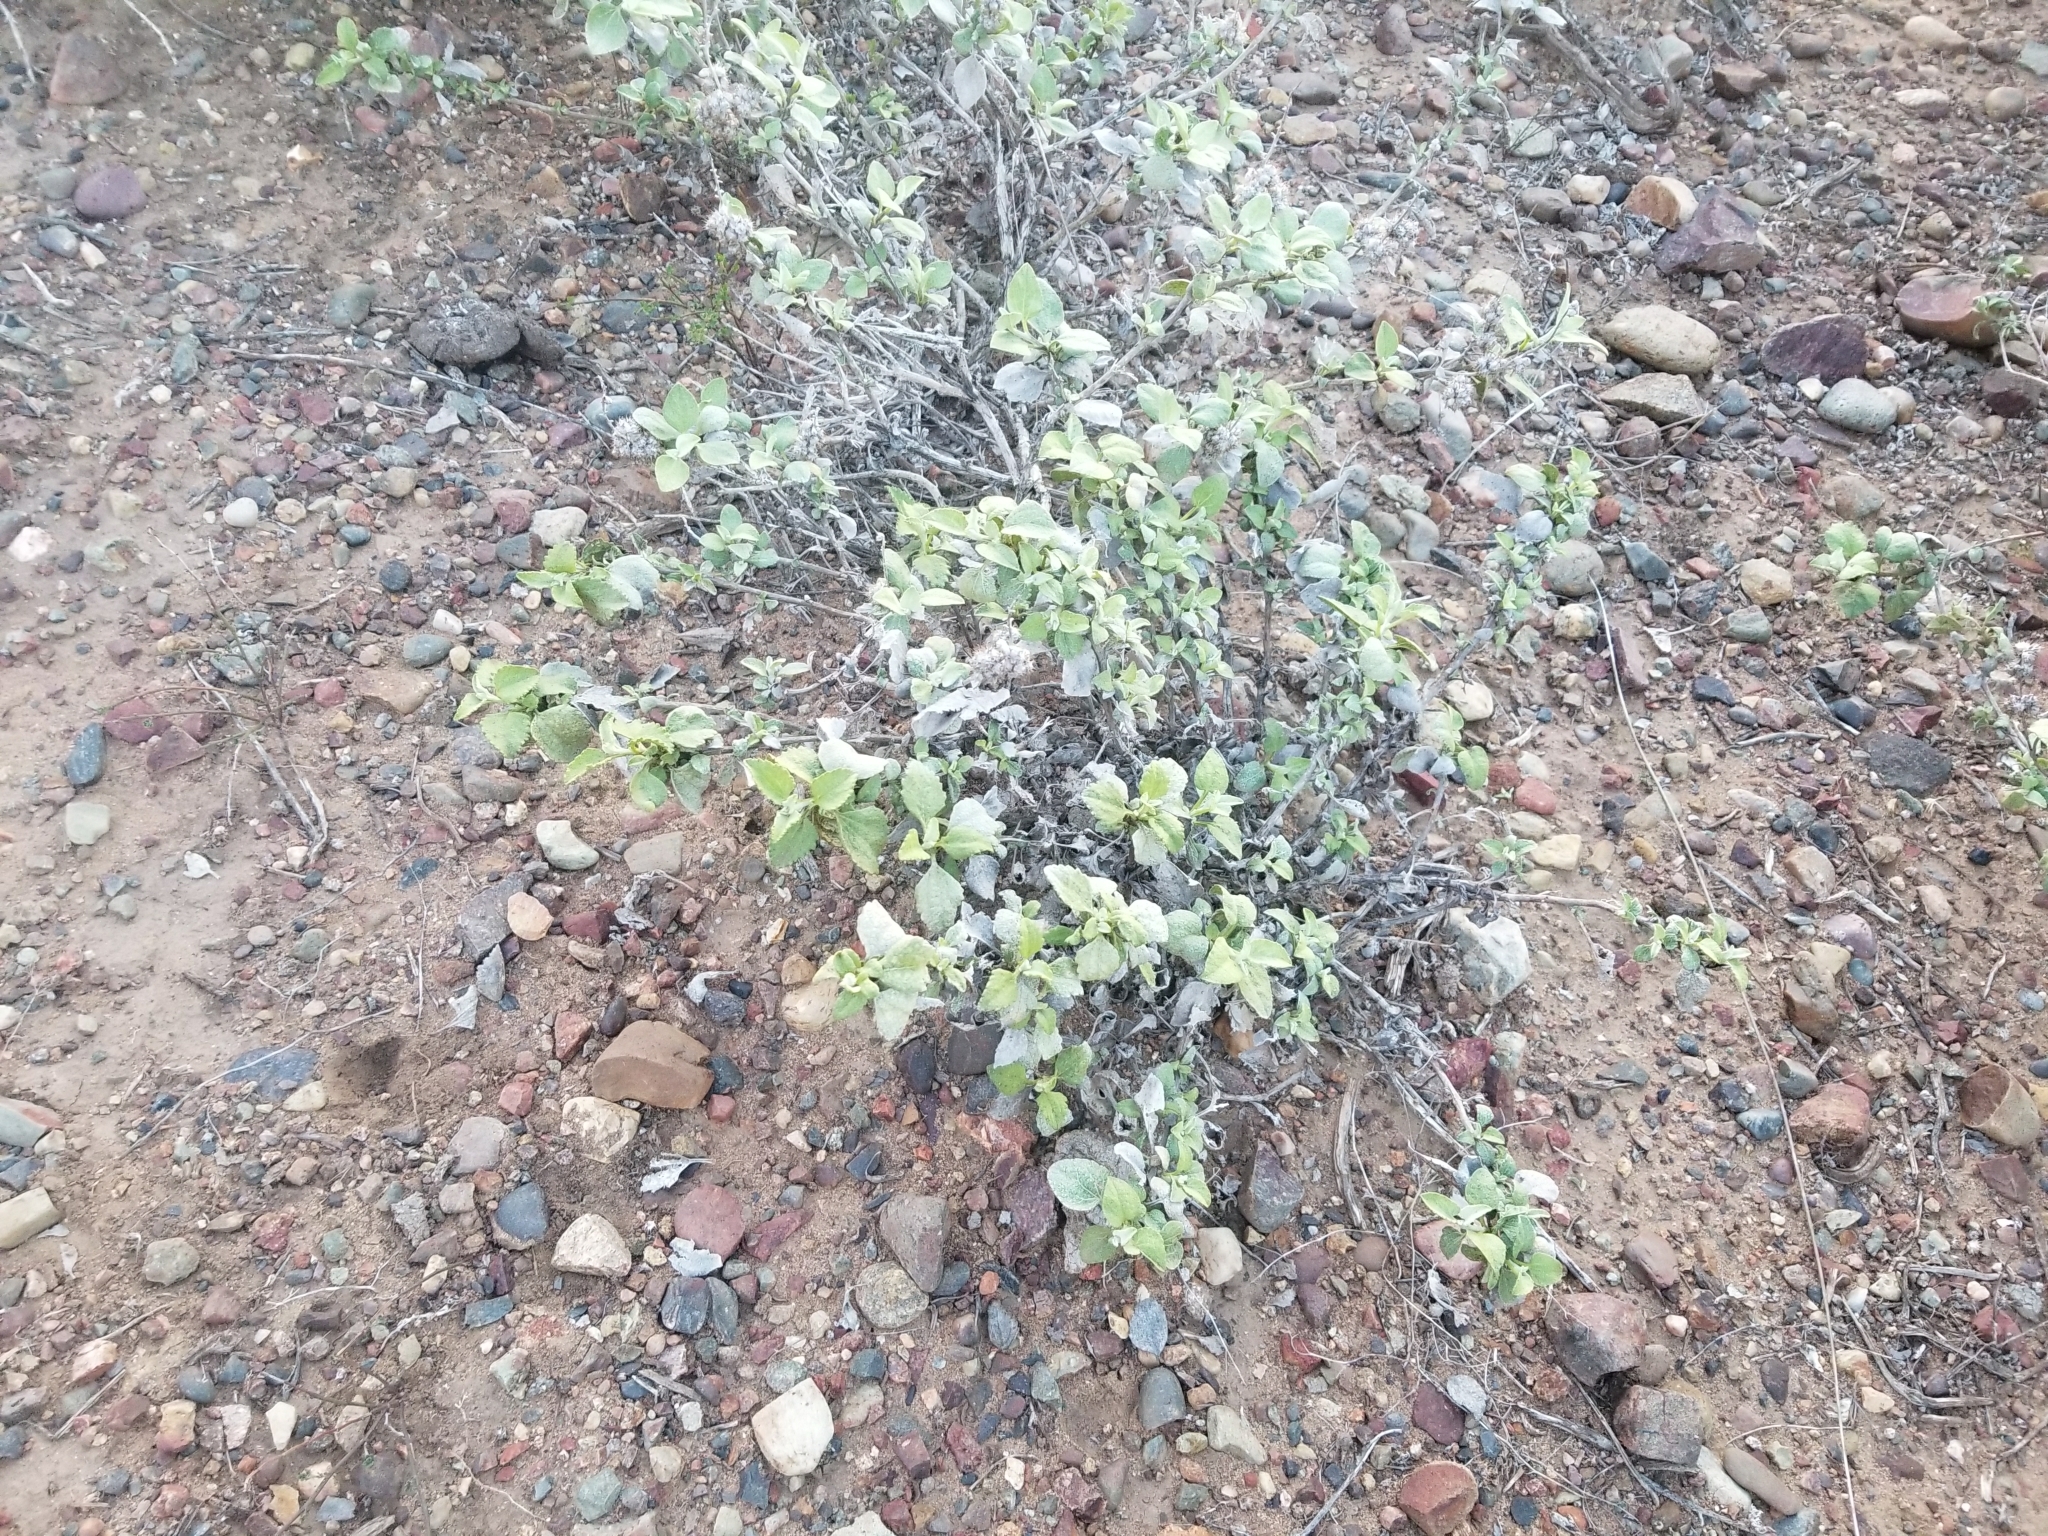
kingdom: Plantae
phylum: Tracheophyta
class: Magnoliopsida
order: Asterales
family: Asteraceae
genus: Ambrosia
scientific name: Ambrosia chenopodiifolia
